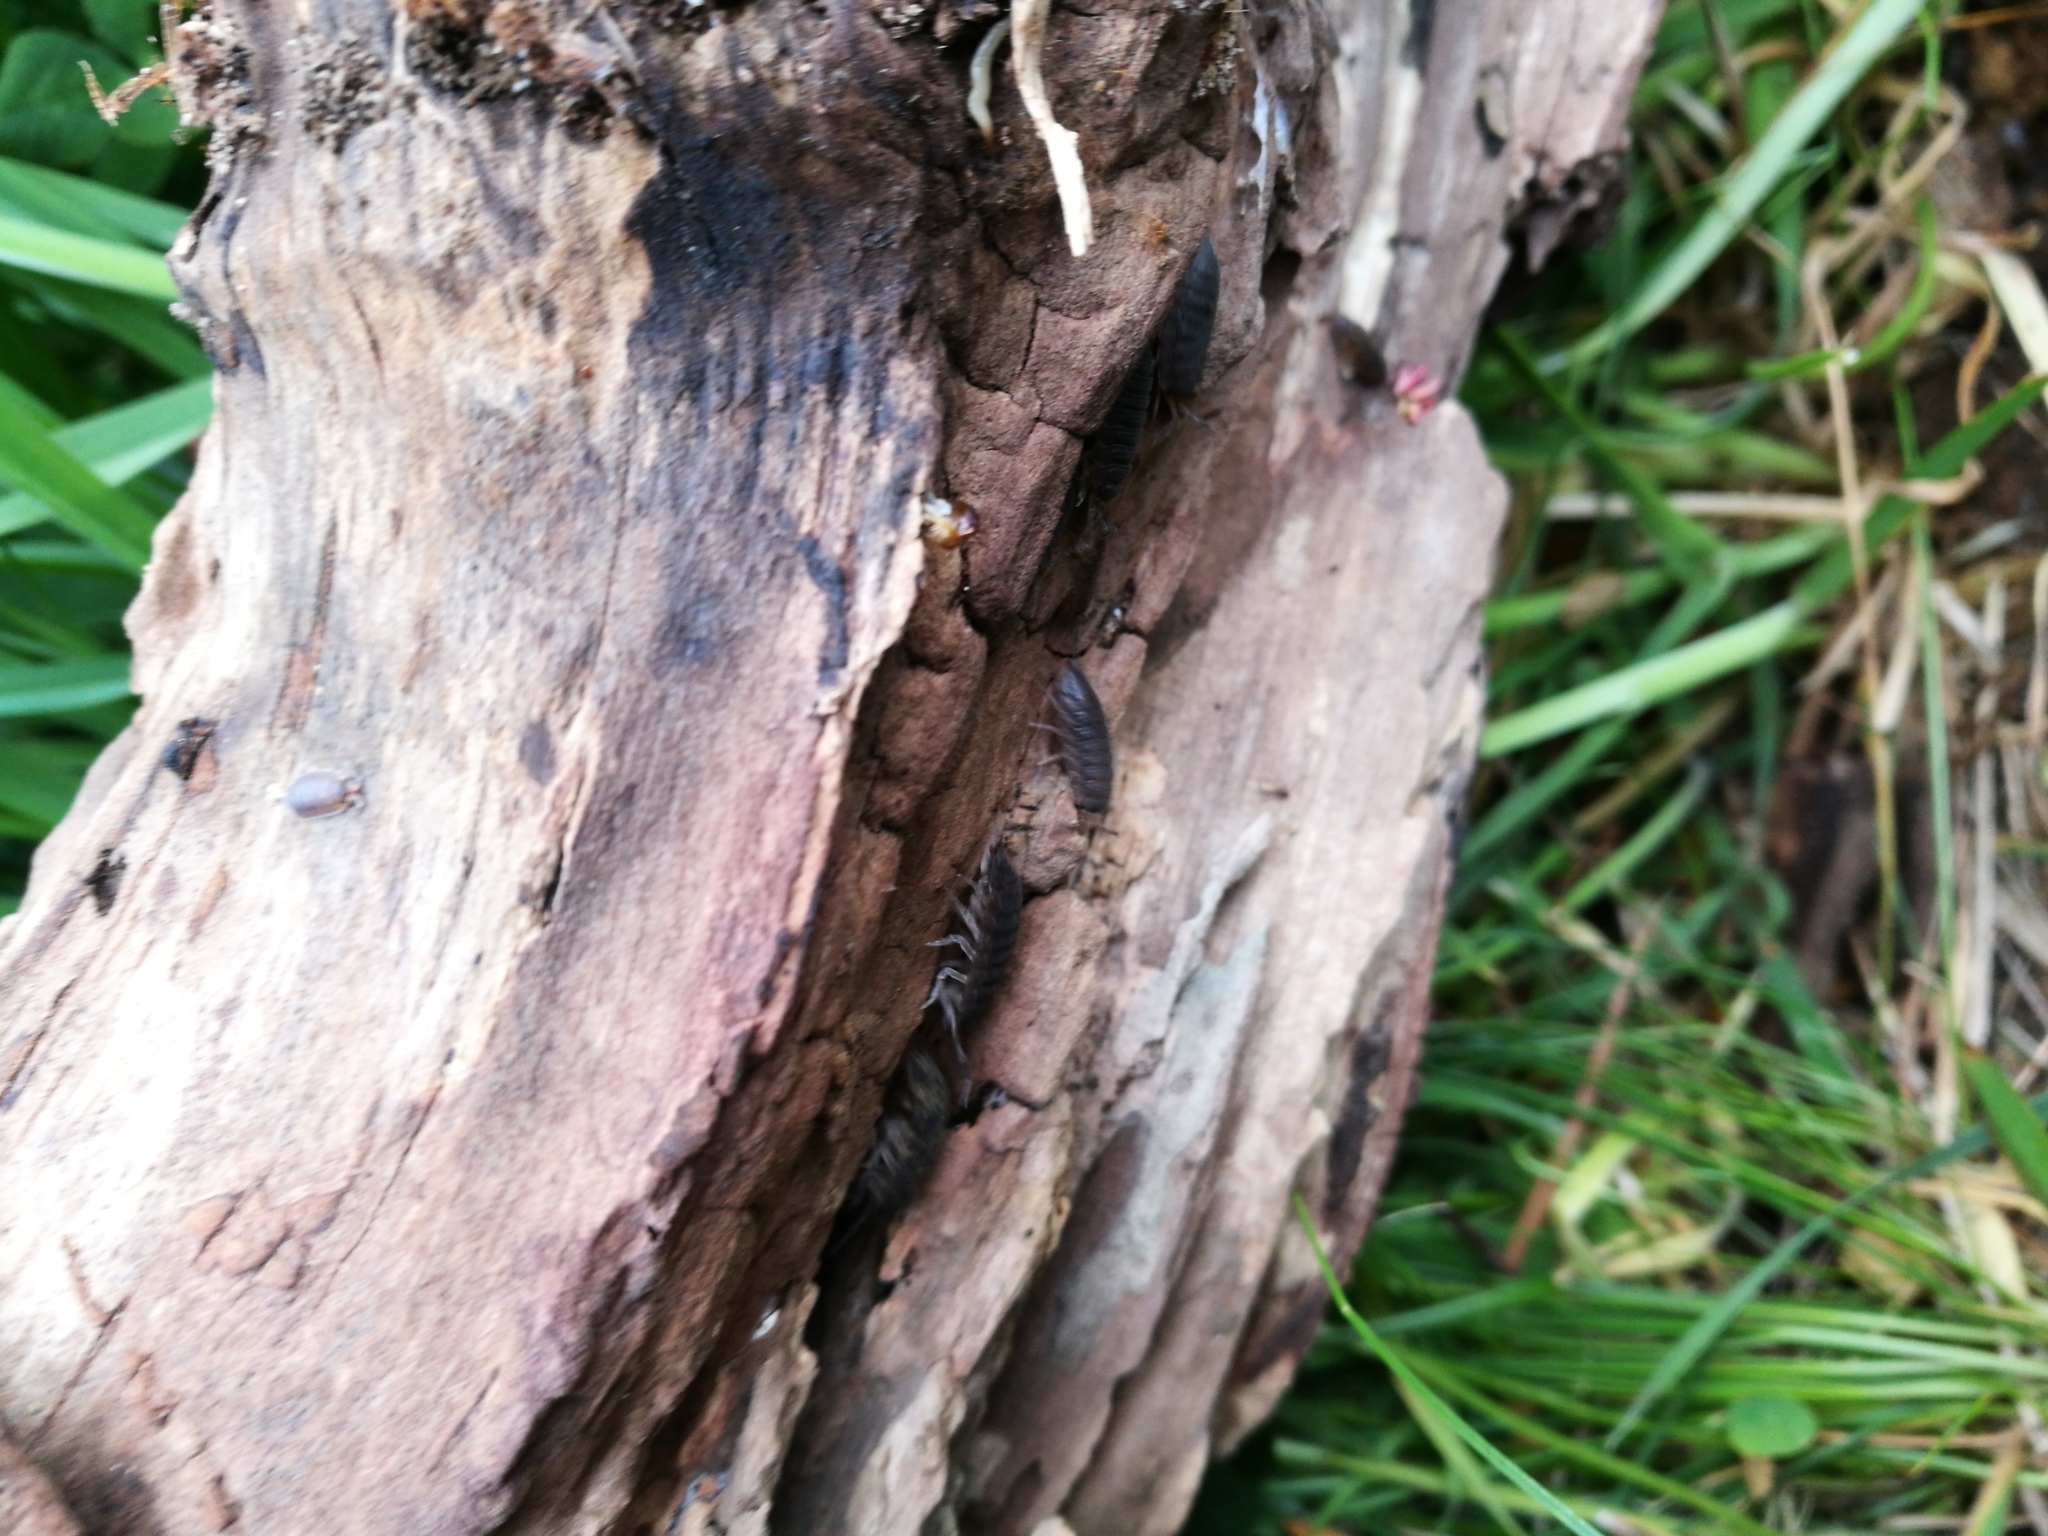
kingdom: Animalia
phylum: Arthropoda
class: Malacostraca
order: Isopoda
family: Porcellionidae
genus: Porcellio
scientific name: Porcellio scaber
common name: Common rough woodlouse
